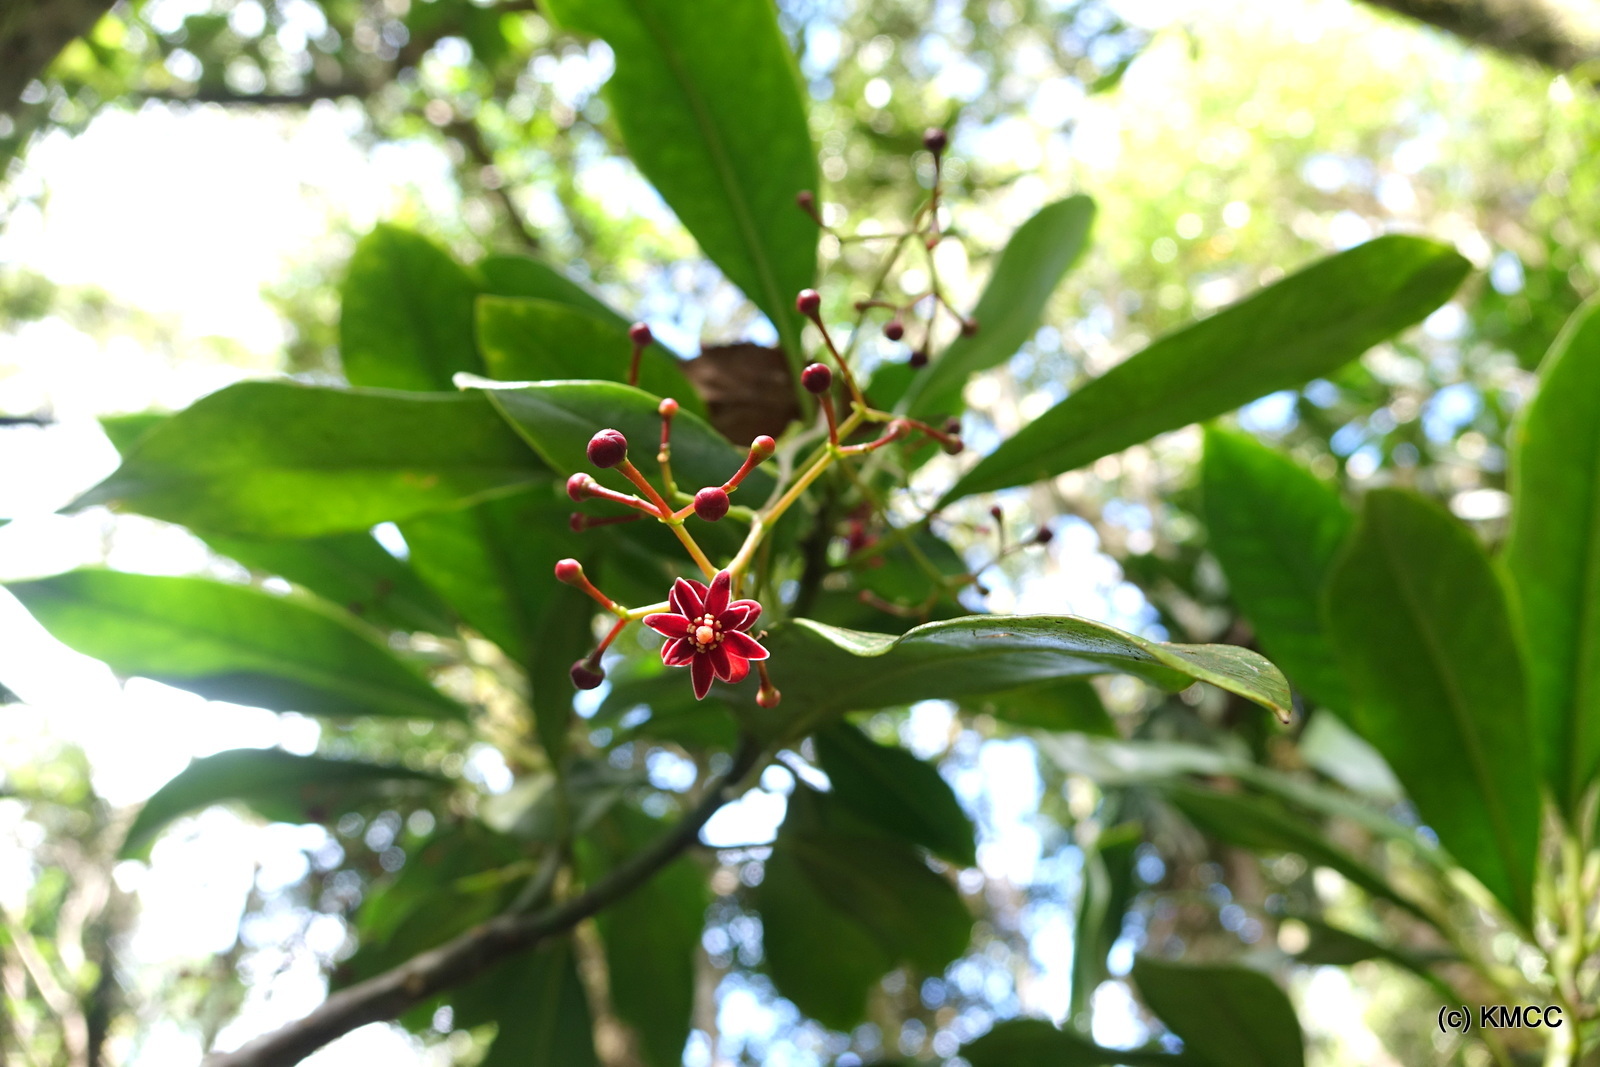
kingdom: Plantae
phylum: Tracheophyta
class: Magnoliopsida
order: Canellales
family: Winteraceae
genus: Takhtajania
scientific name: Takhtajania perrieri
